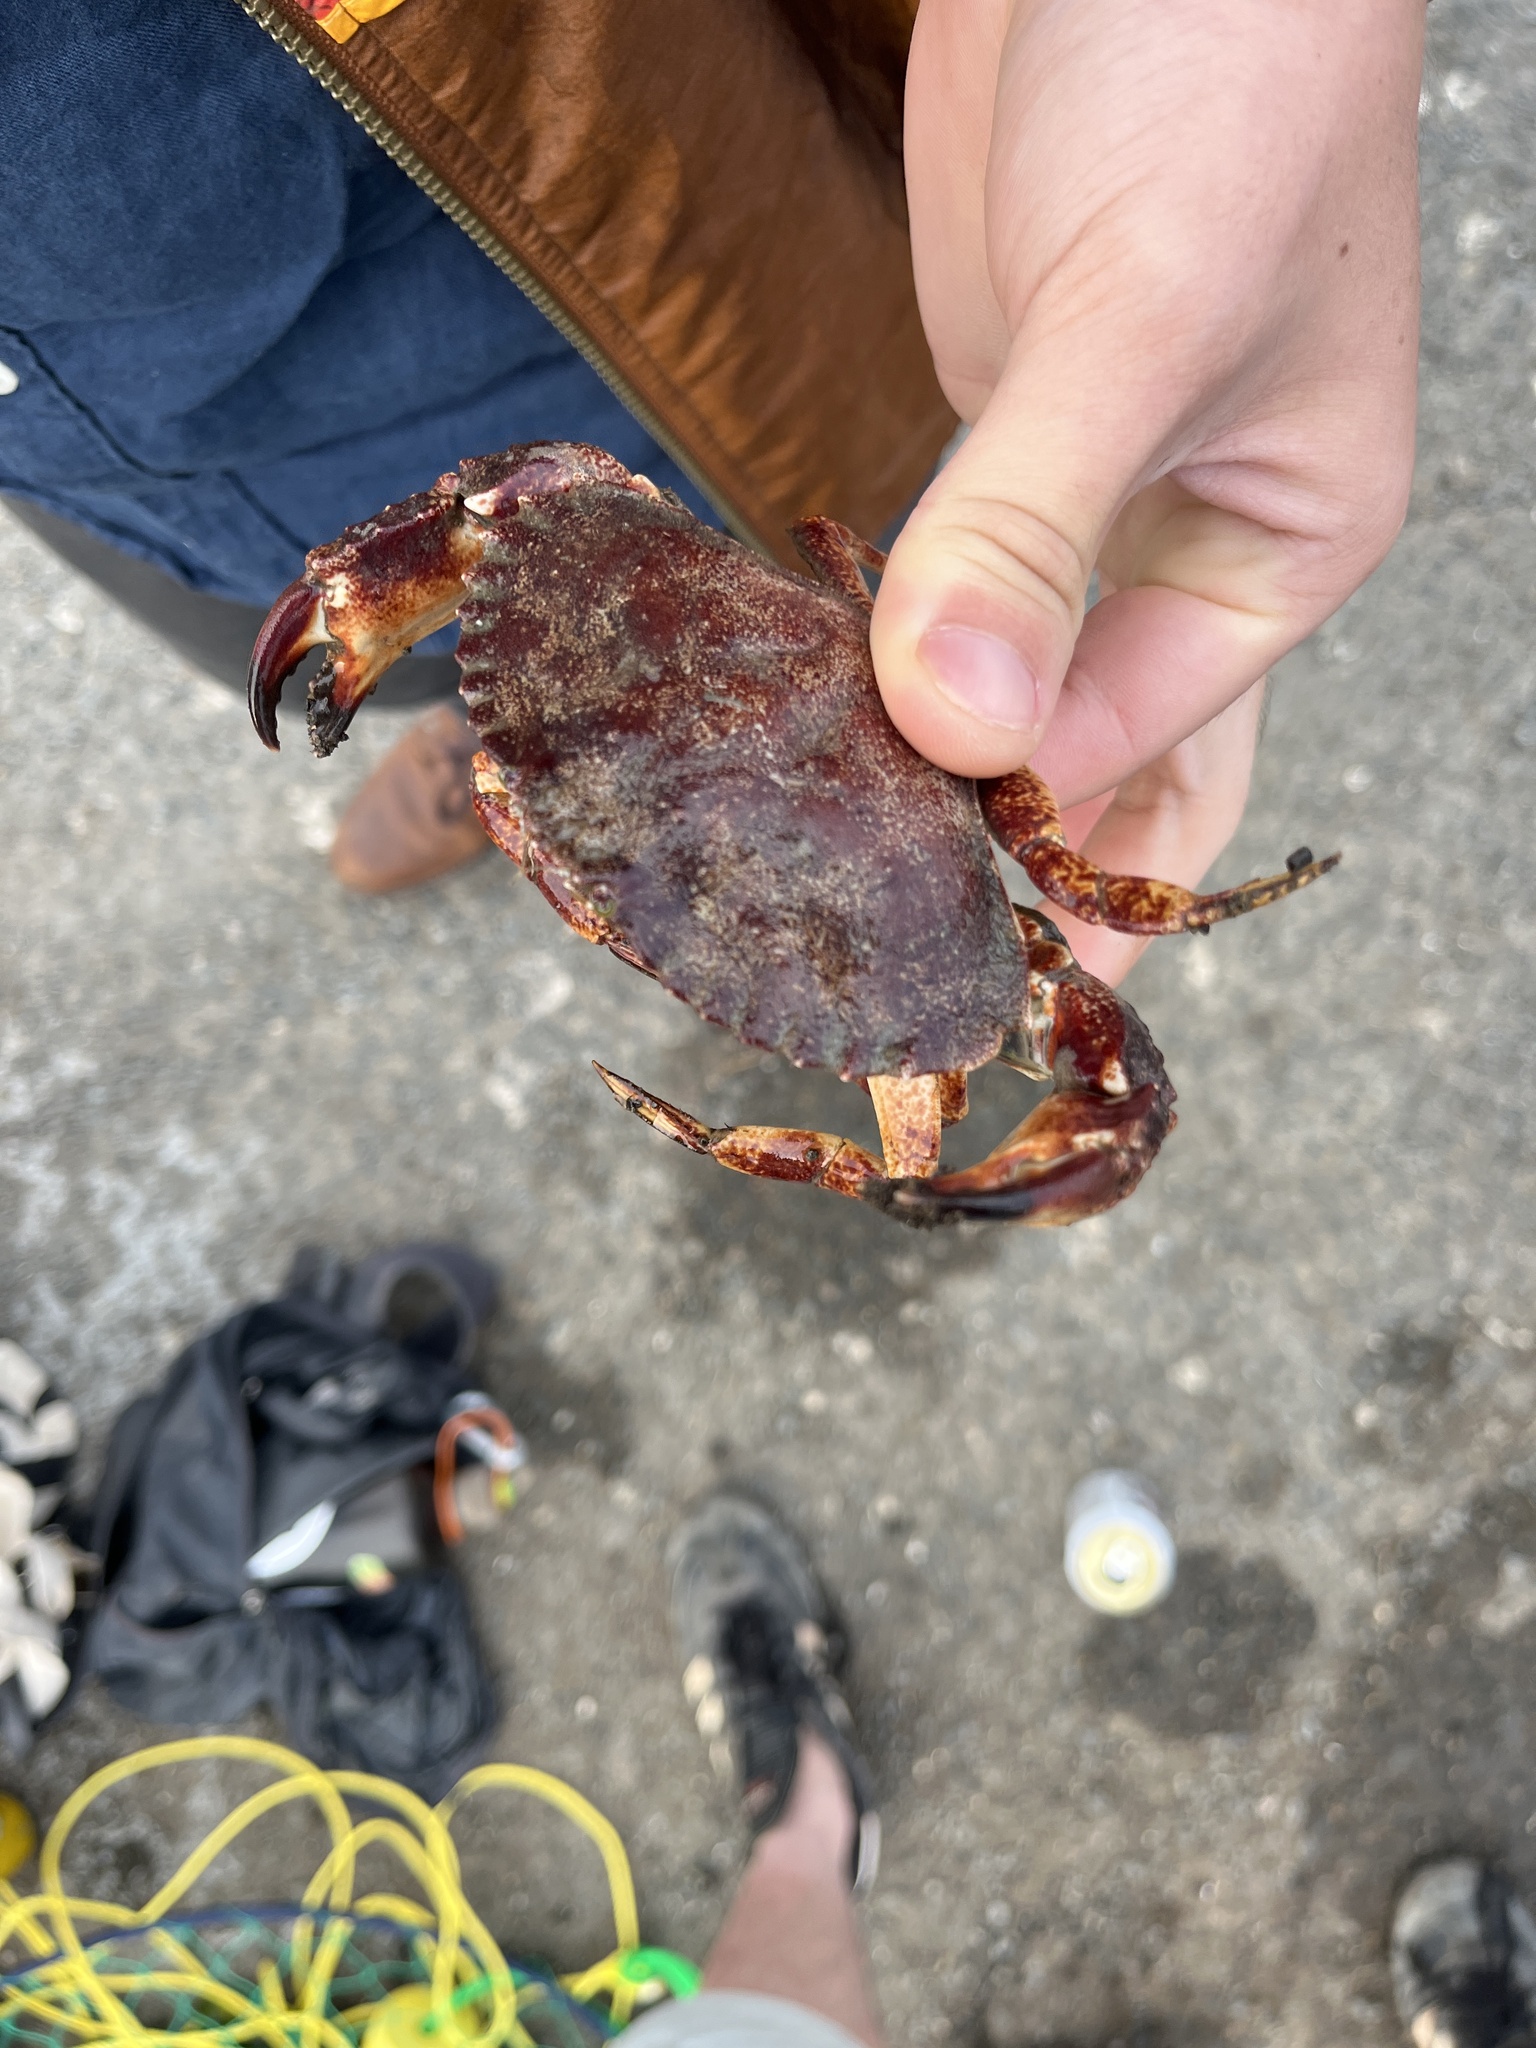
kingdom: Animalia
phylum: Arthropoda
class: Malacostraca
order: Decapoda
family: Cancridae
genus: Cancer
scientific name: Cancer productus
